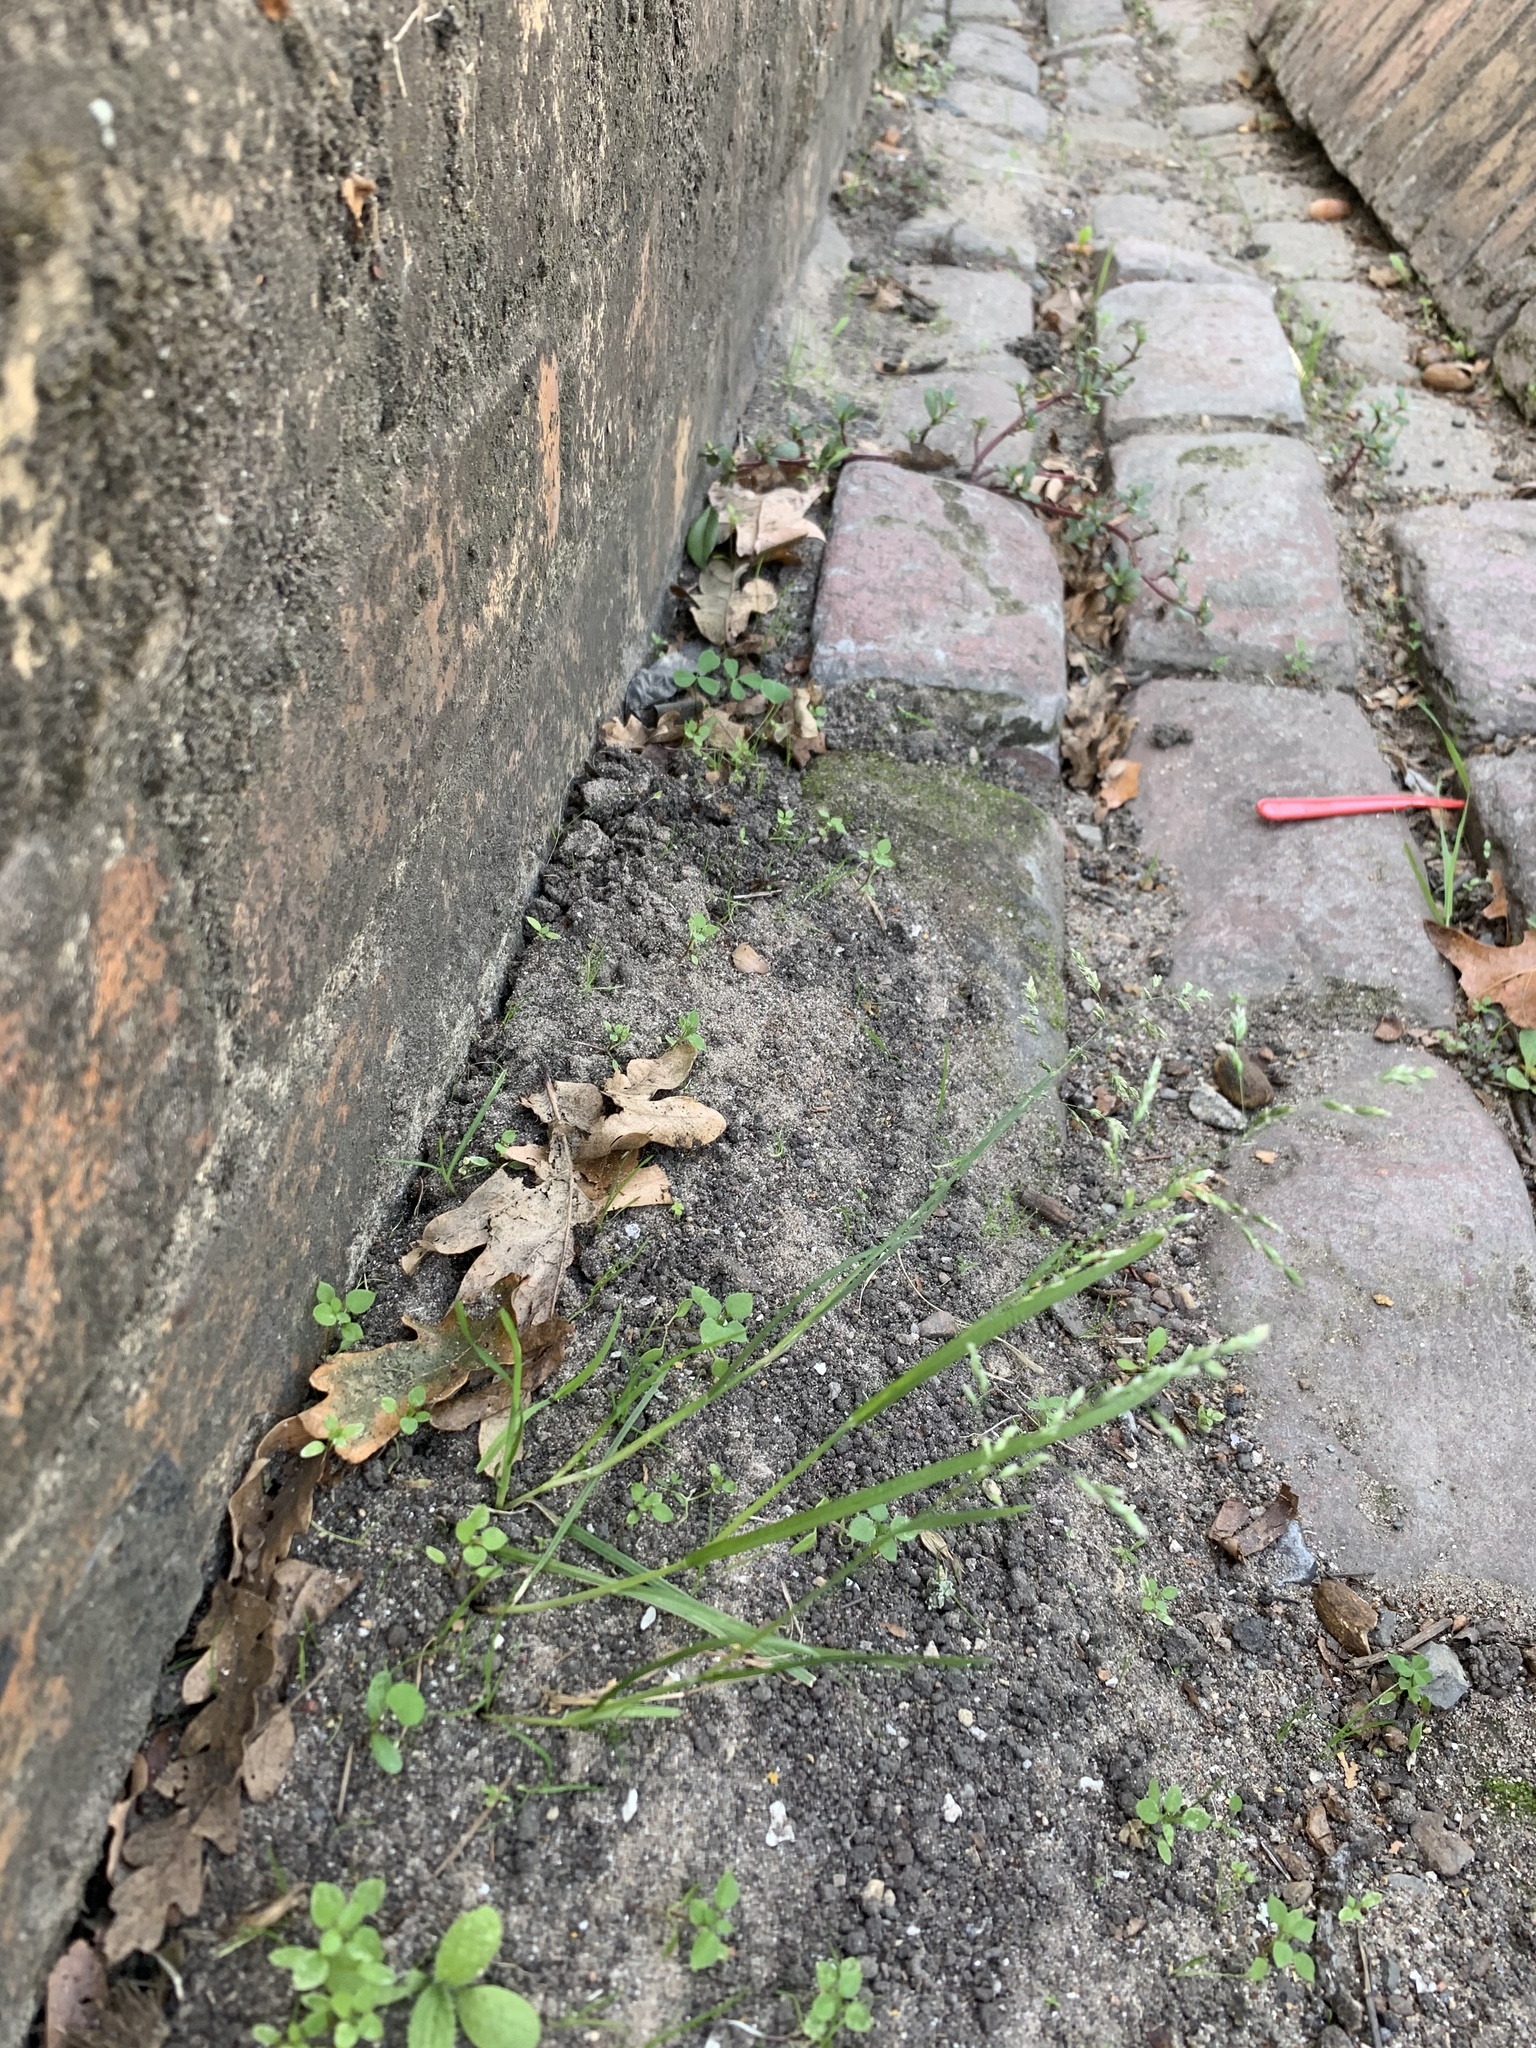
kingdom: Plantae
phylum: Tracheophyta
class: Liliopsida
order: Poales
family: Poaceae
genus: Poa
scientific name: Poa annua
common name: Annual bluegrass
